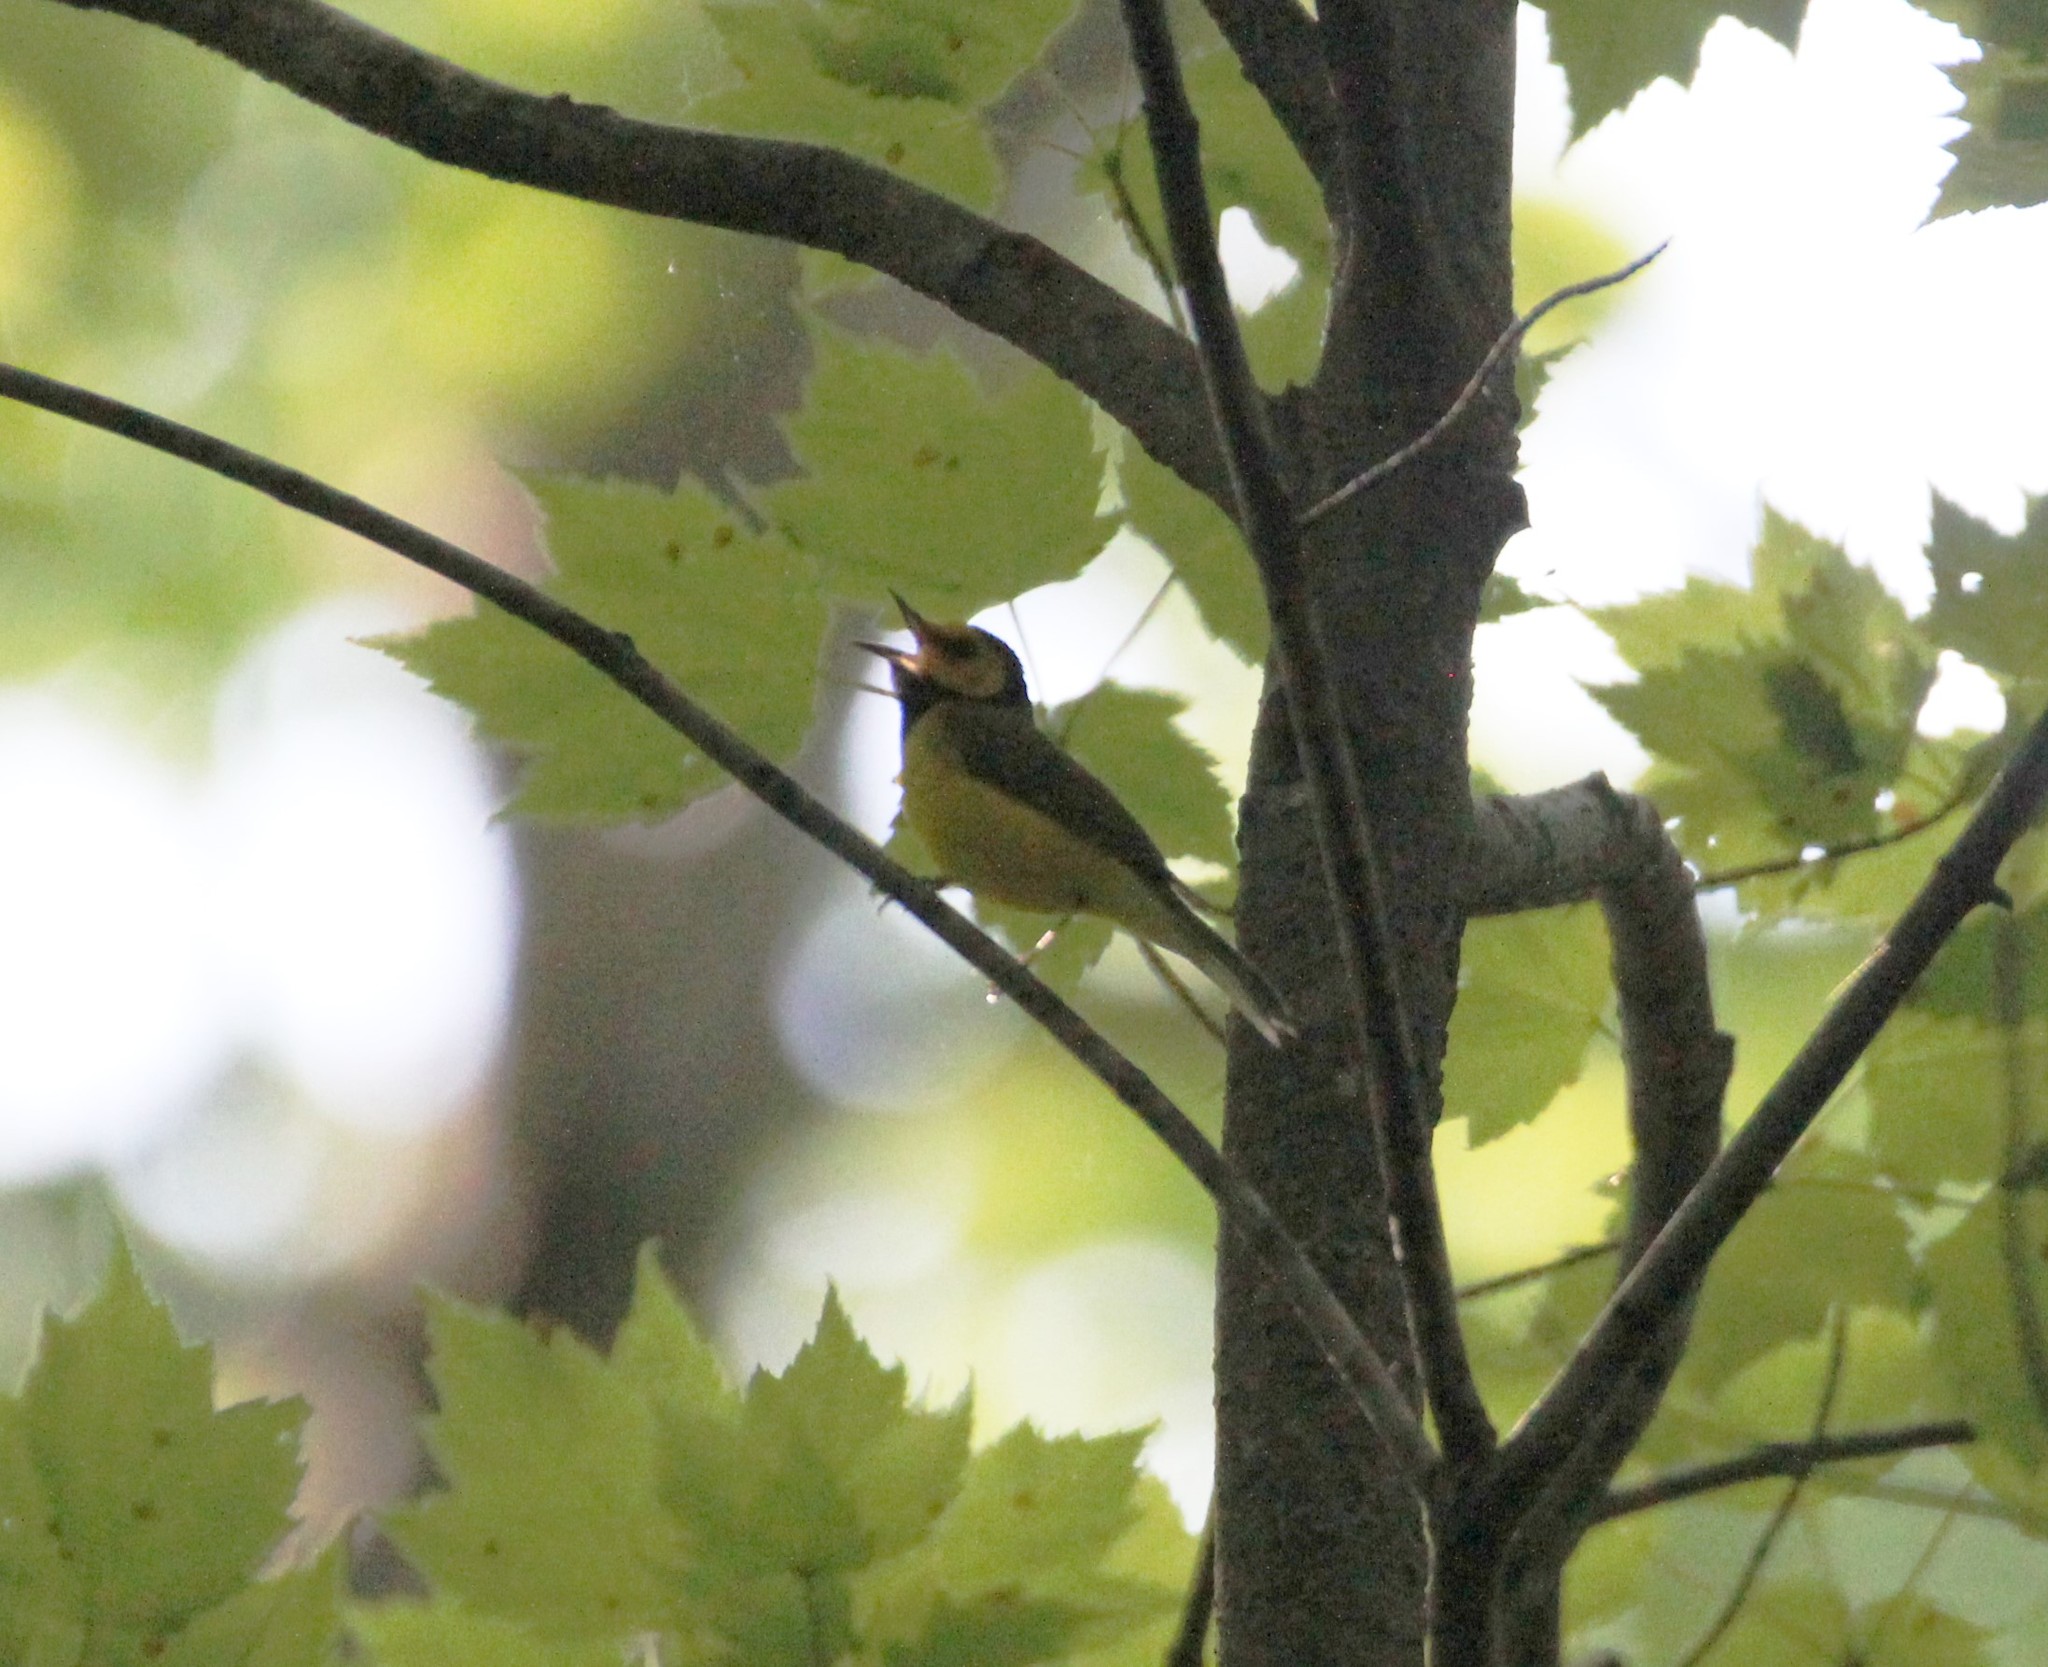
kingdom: Animalia
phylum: Chordata
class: Aves
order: Passeriformes
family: Parulidae
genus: Setophaga
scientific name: Setophaga citrina
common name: Hooded warbler
